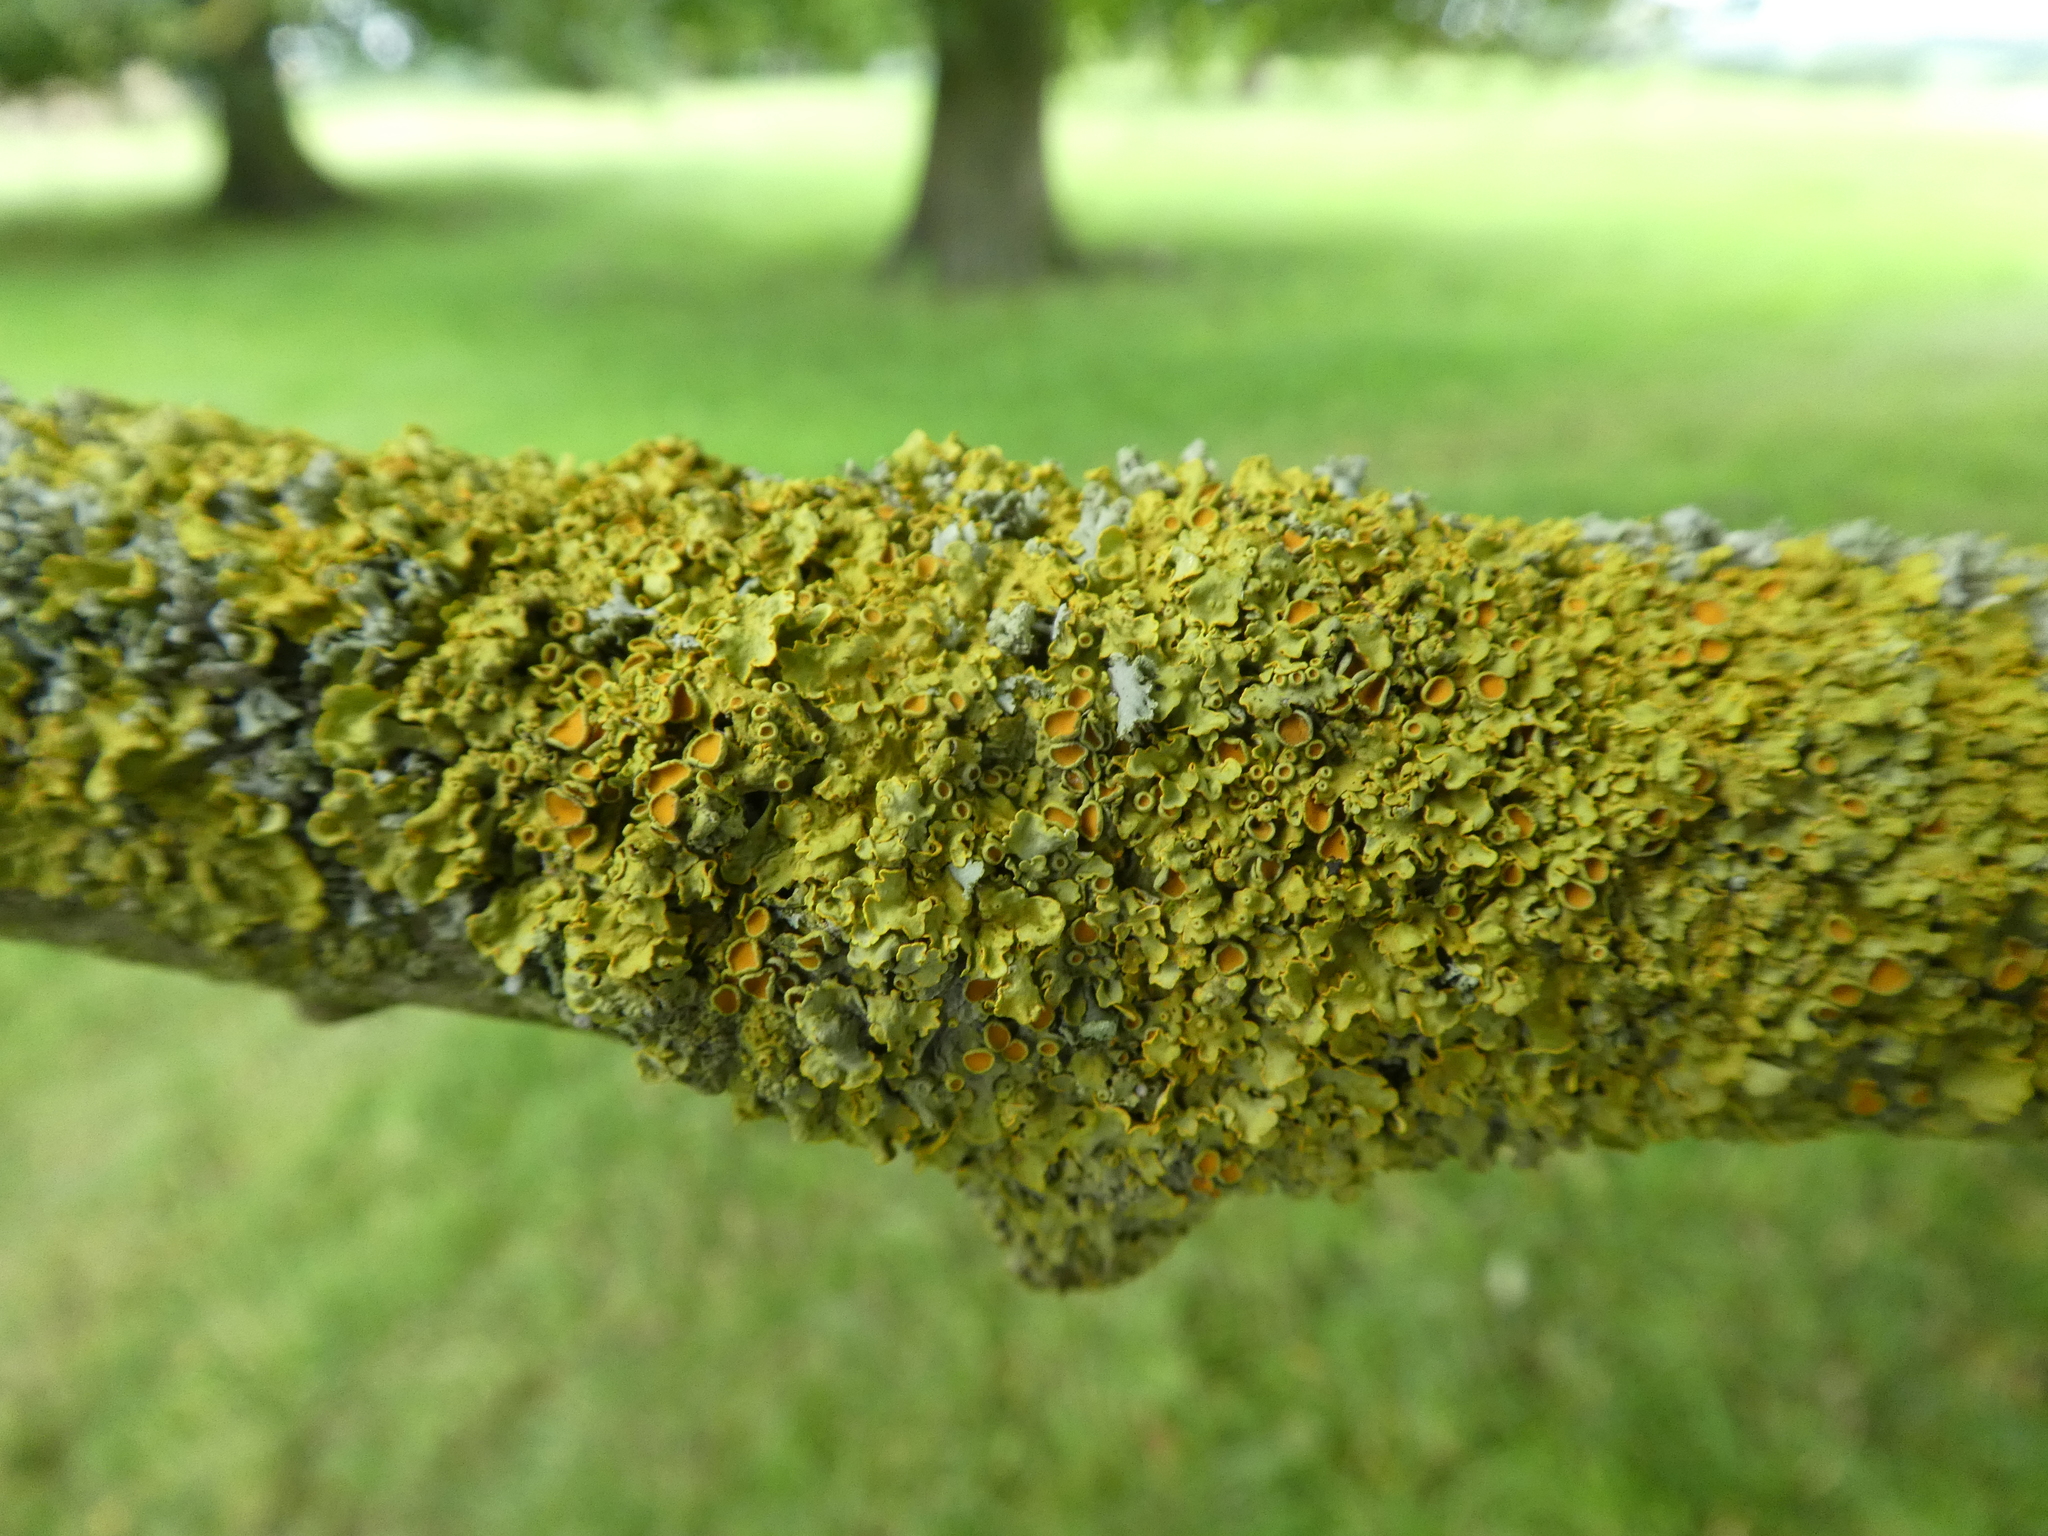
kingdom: Fungi
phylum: Ascomycota
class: Lecanoromycetes
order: Teloschistales
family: Teloschistaceae
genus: Xanthoria
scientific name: Xanthoria parietina
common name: Common orange lichen
